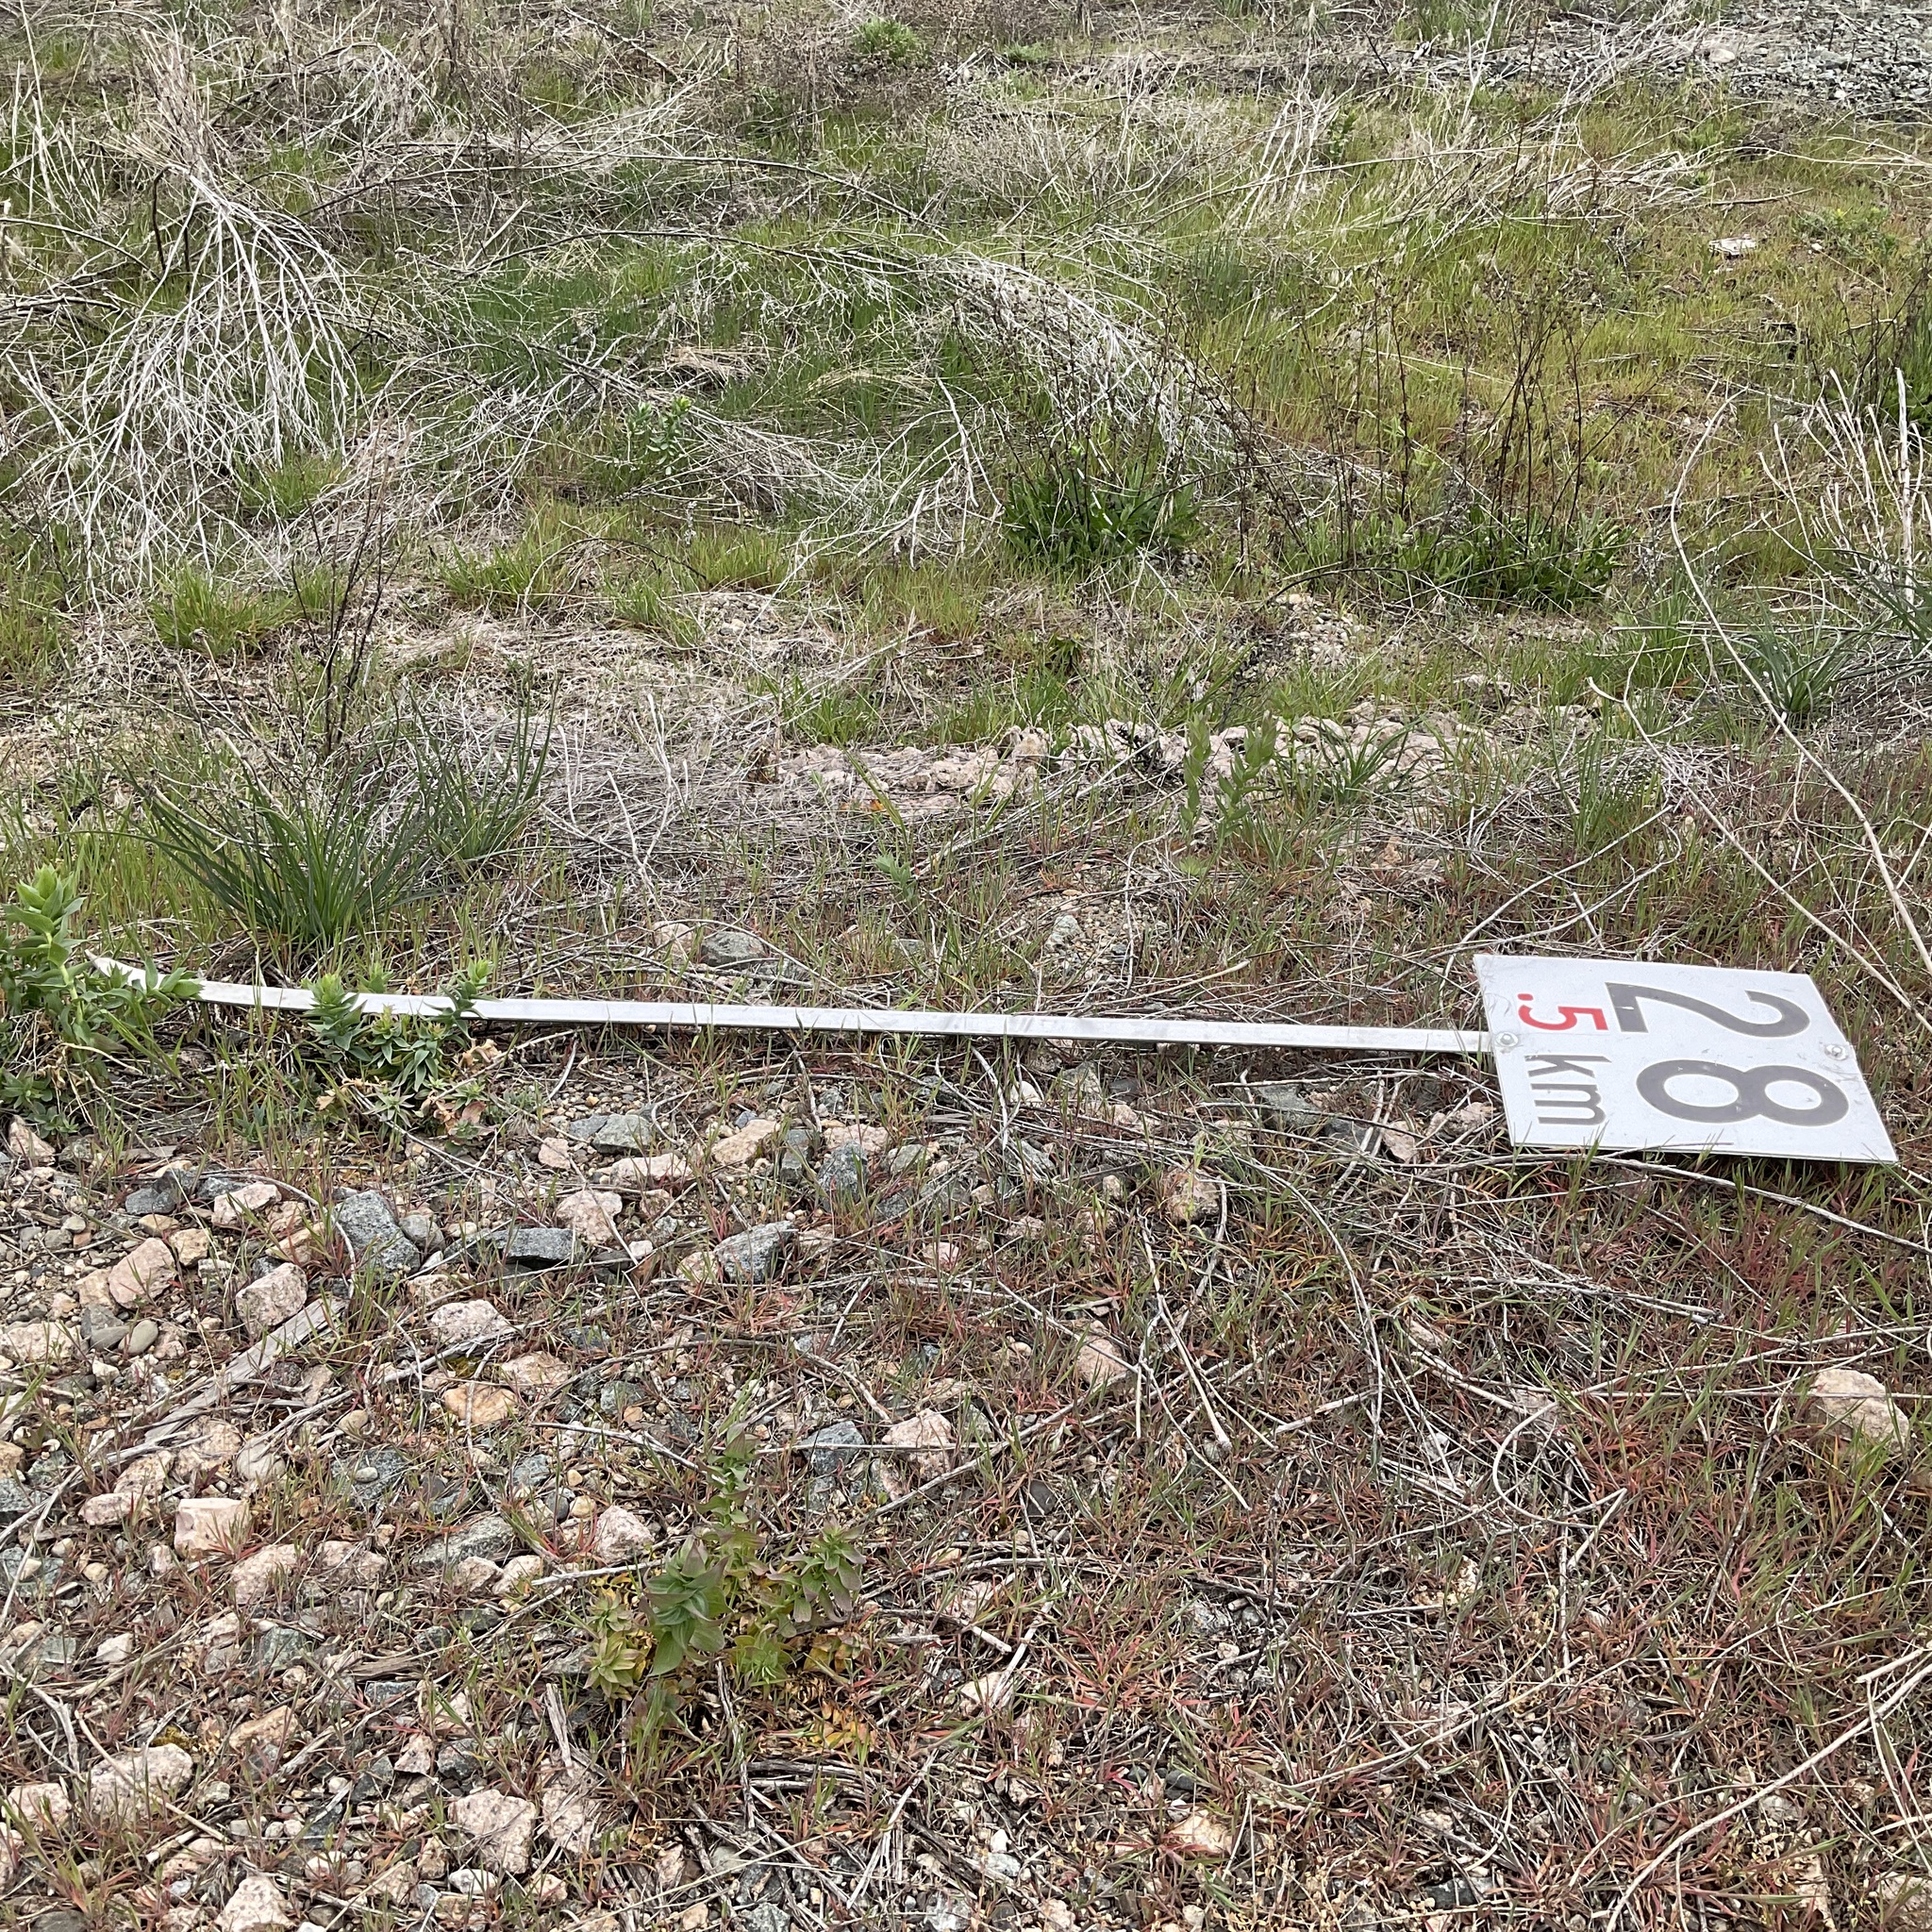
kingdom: Plantae
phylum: Tracheophyta
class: Magnoliopsida
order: Lamiales
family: Plantaginaceae
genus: Linaria
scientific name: Linaria dalmatica
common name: Dalmatian toadflax
